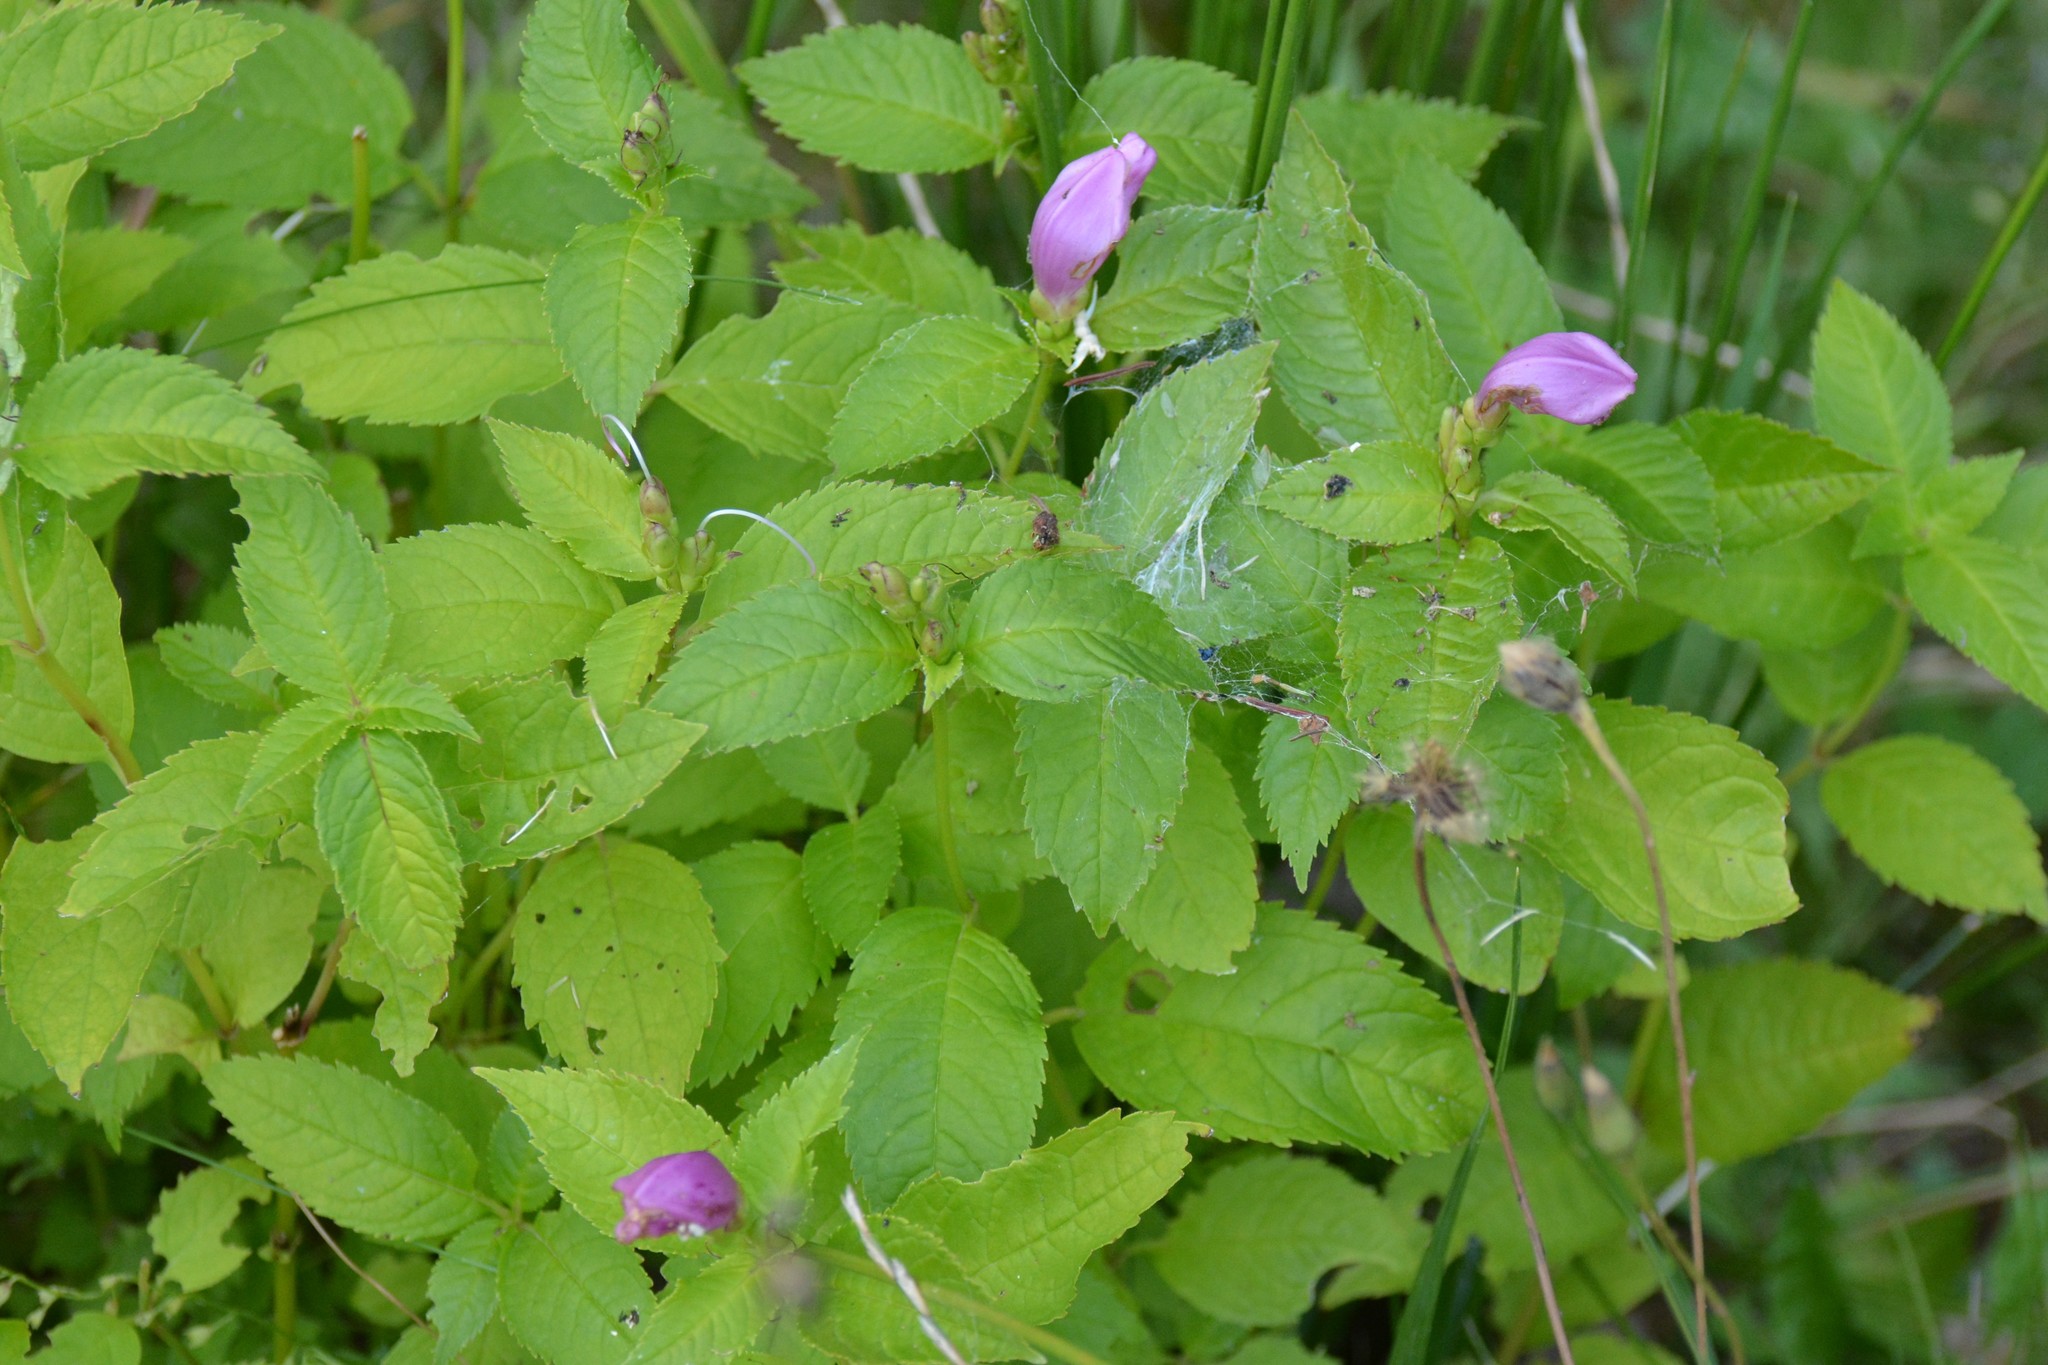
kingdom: Plantae
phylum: Tracheophyta
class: Magnoliopsida
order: Lamiales
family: Plantaginaceae
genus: Chelone
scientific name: Chelone lyonii
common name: Pink turtlehead
